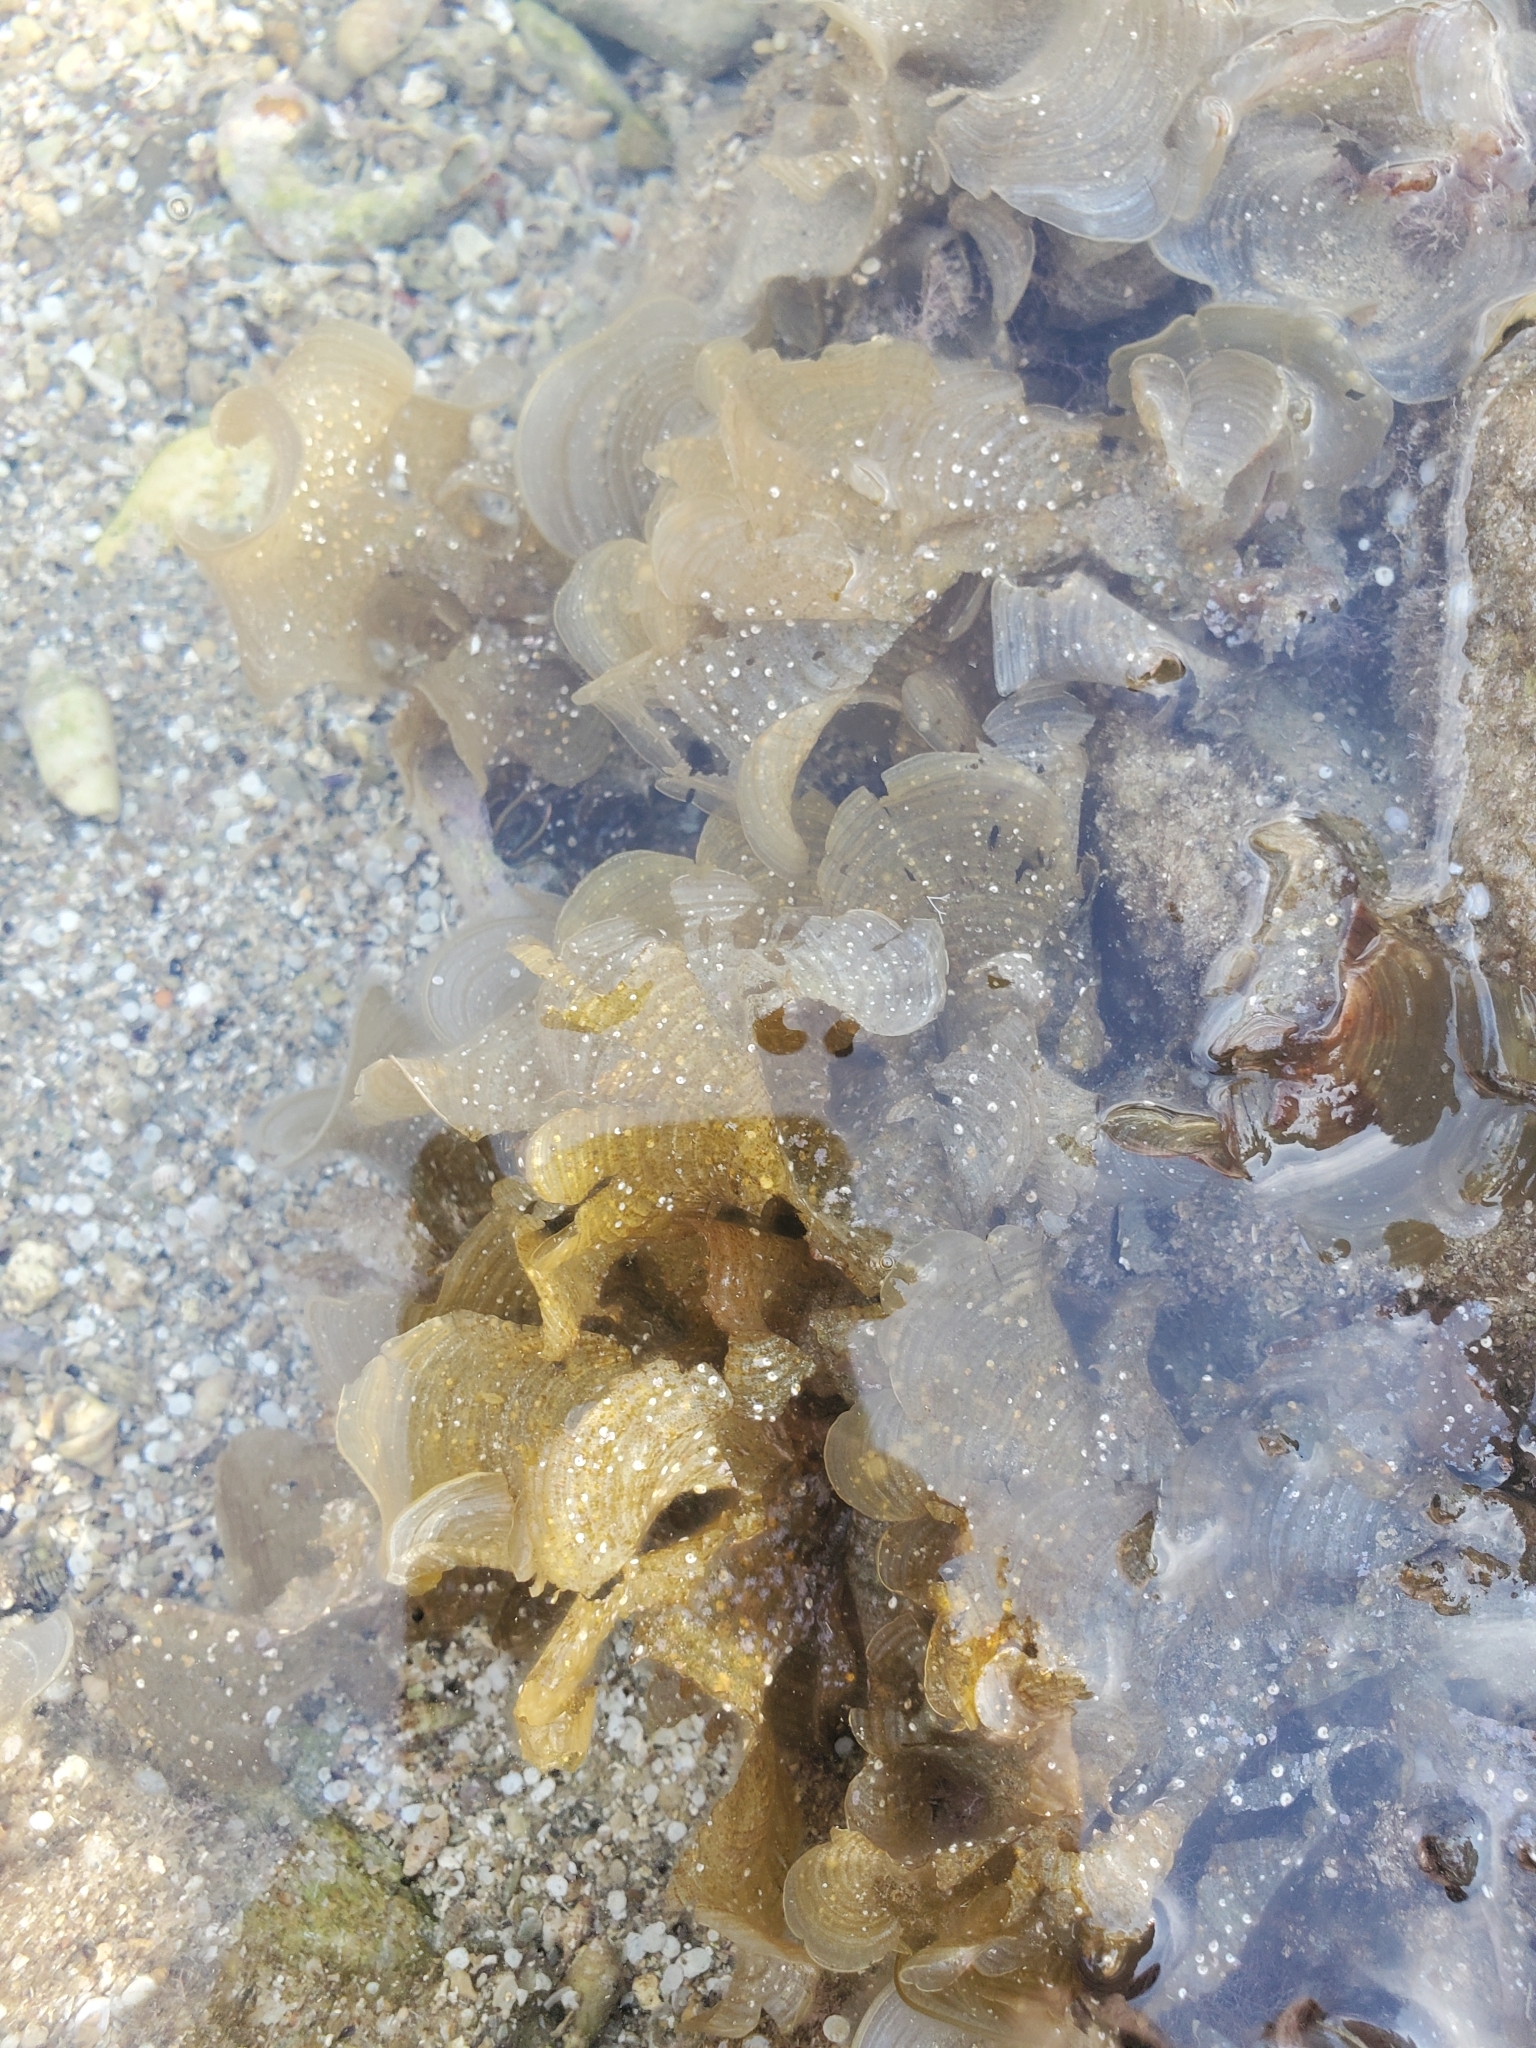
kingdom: Chromista
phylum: Ochrophyta
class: Phaeophyceae
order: Dictyotales
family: Dictyotaceae
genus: Padina
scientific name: Padina
